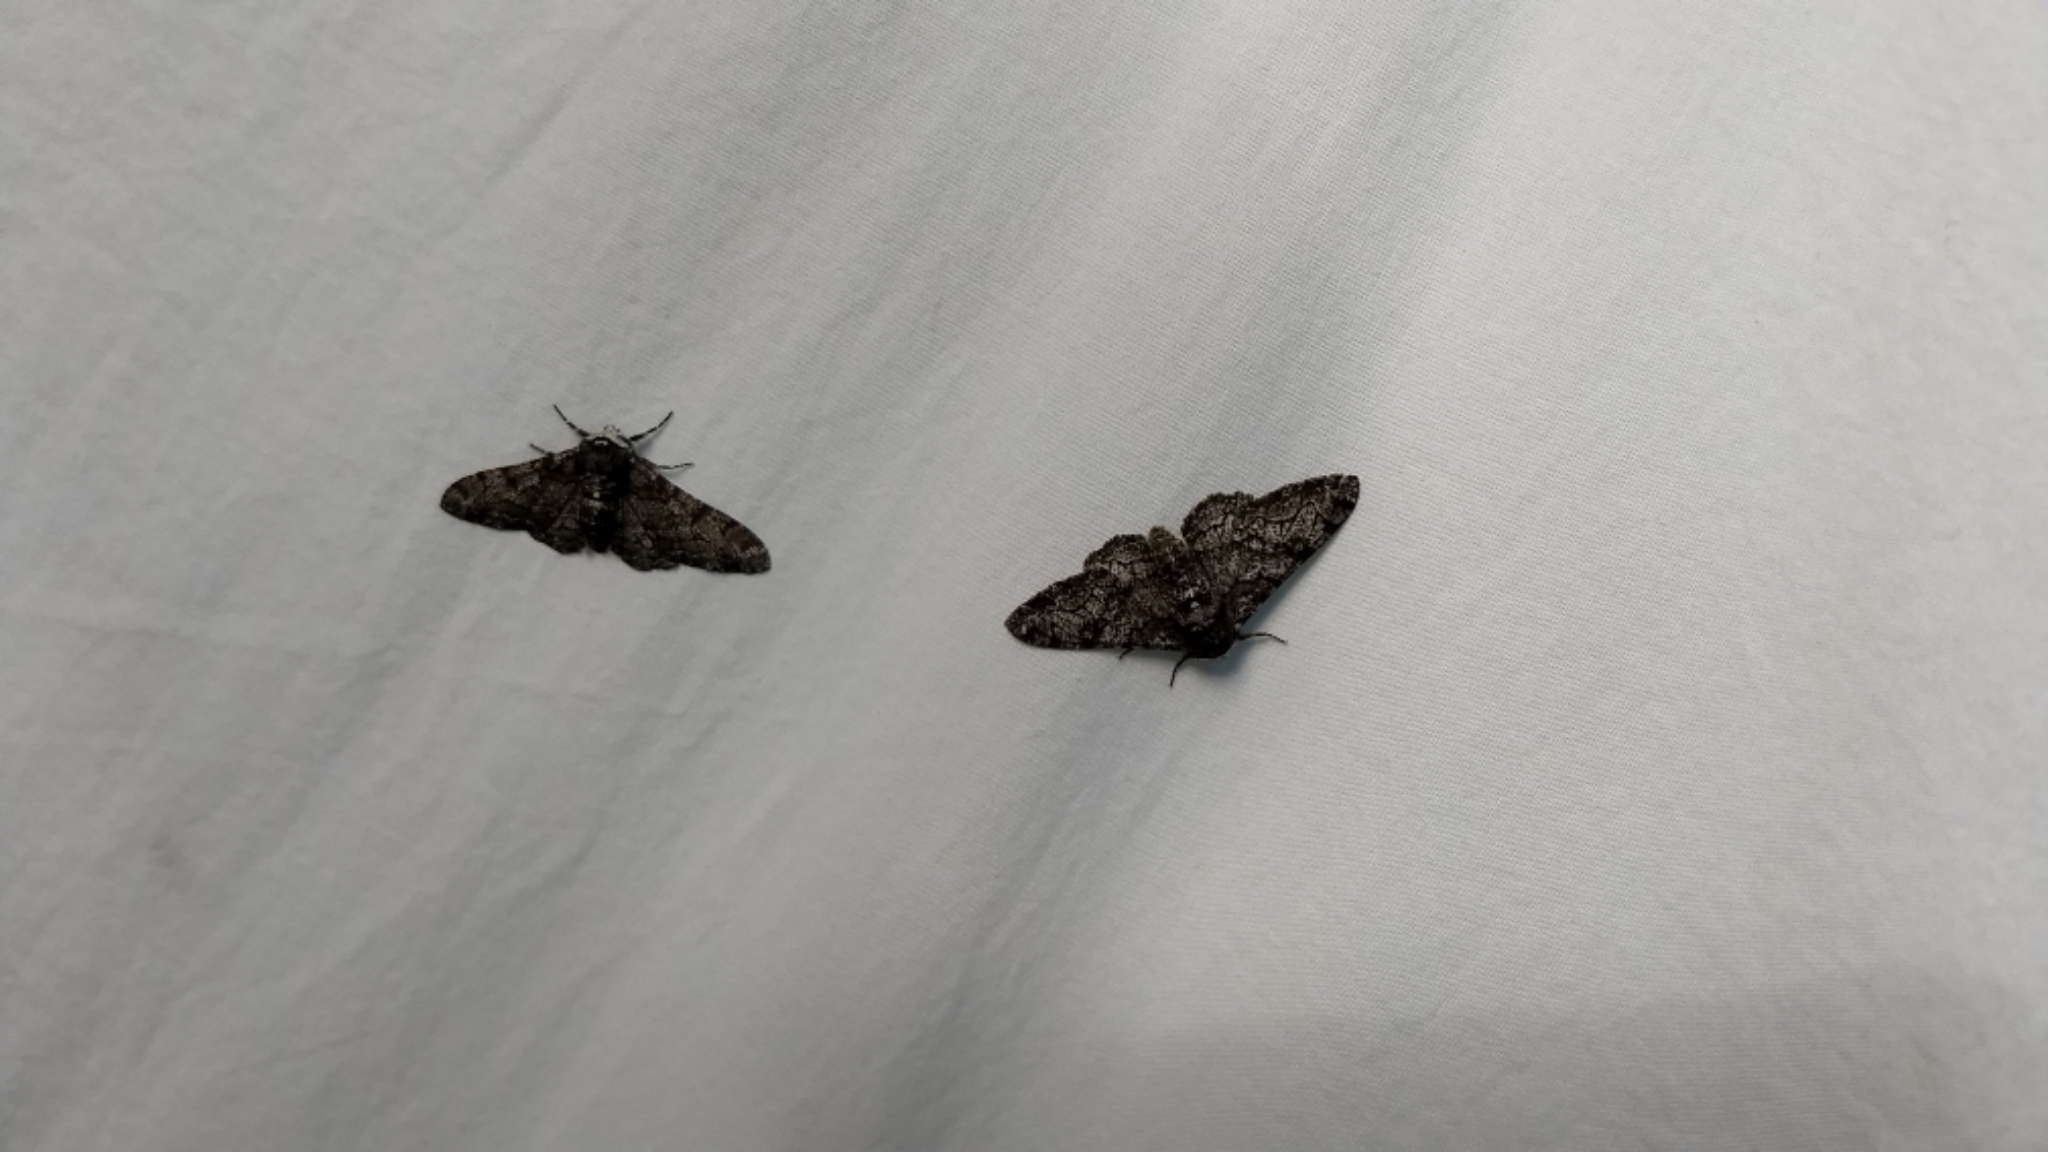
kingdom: Animalia
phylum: Arthropoda
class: Insecta
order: Lepidoptera
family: Geometridae
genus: Biston
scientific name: Biston betularia
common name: Peppered moth
